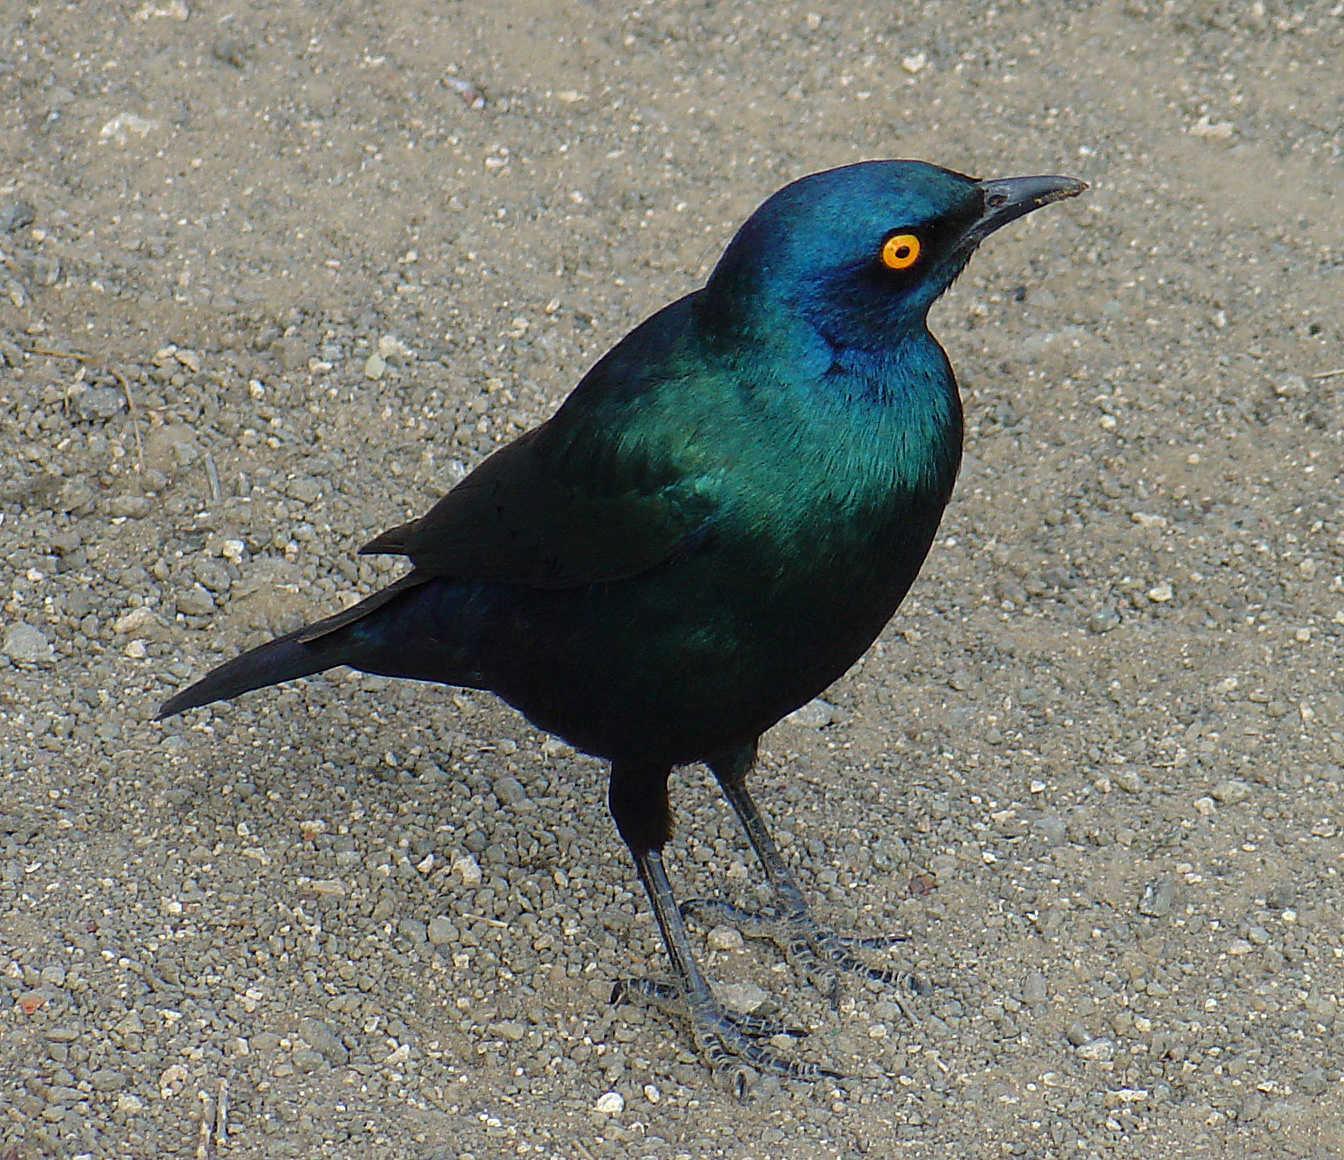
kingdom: Animalia
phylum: Chordata
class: Aves
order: Passeriformes
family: Sturnidae
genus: Lamprotornis
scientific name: Lamprotornis nitens
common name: Cape starling
